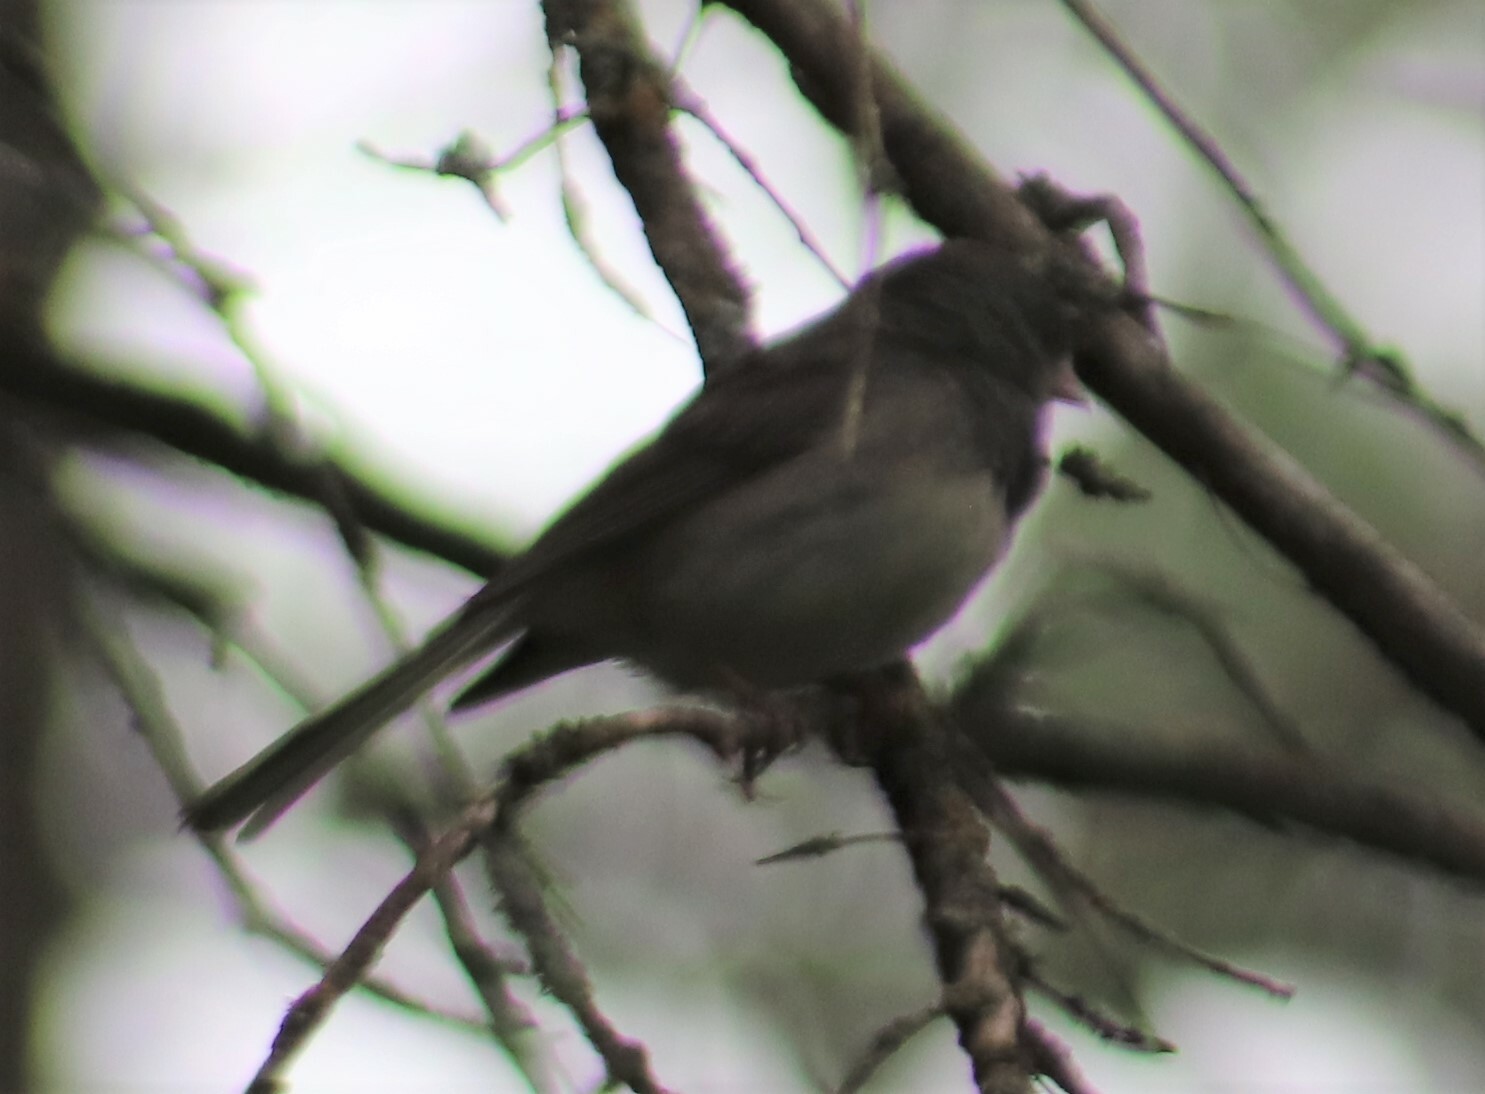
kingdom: Animalia
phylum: Chordata
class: Aves
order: Passeriformes
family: Passerellidae
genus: Junco
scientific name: Junco hyemalis
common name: Dark-eyed junco
